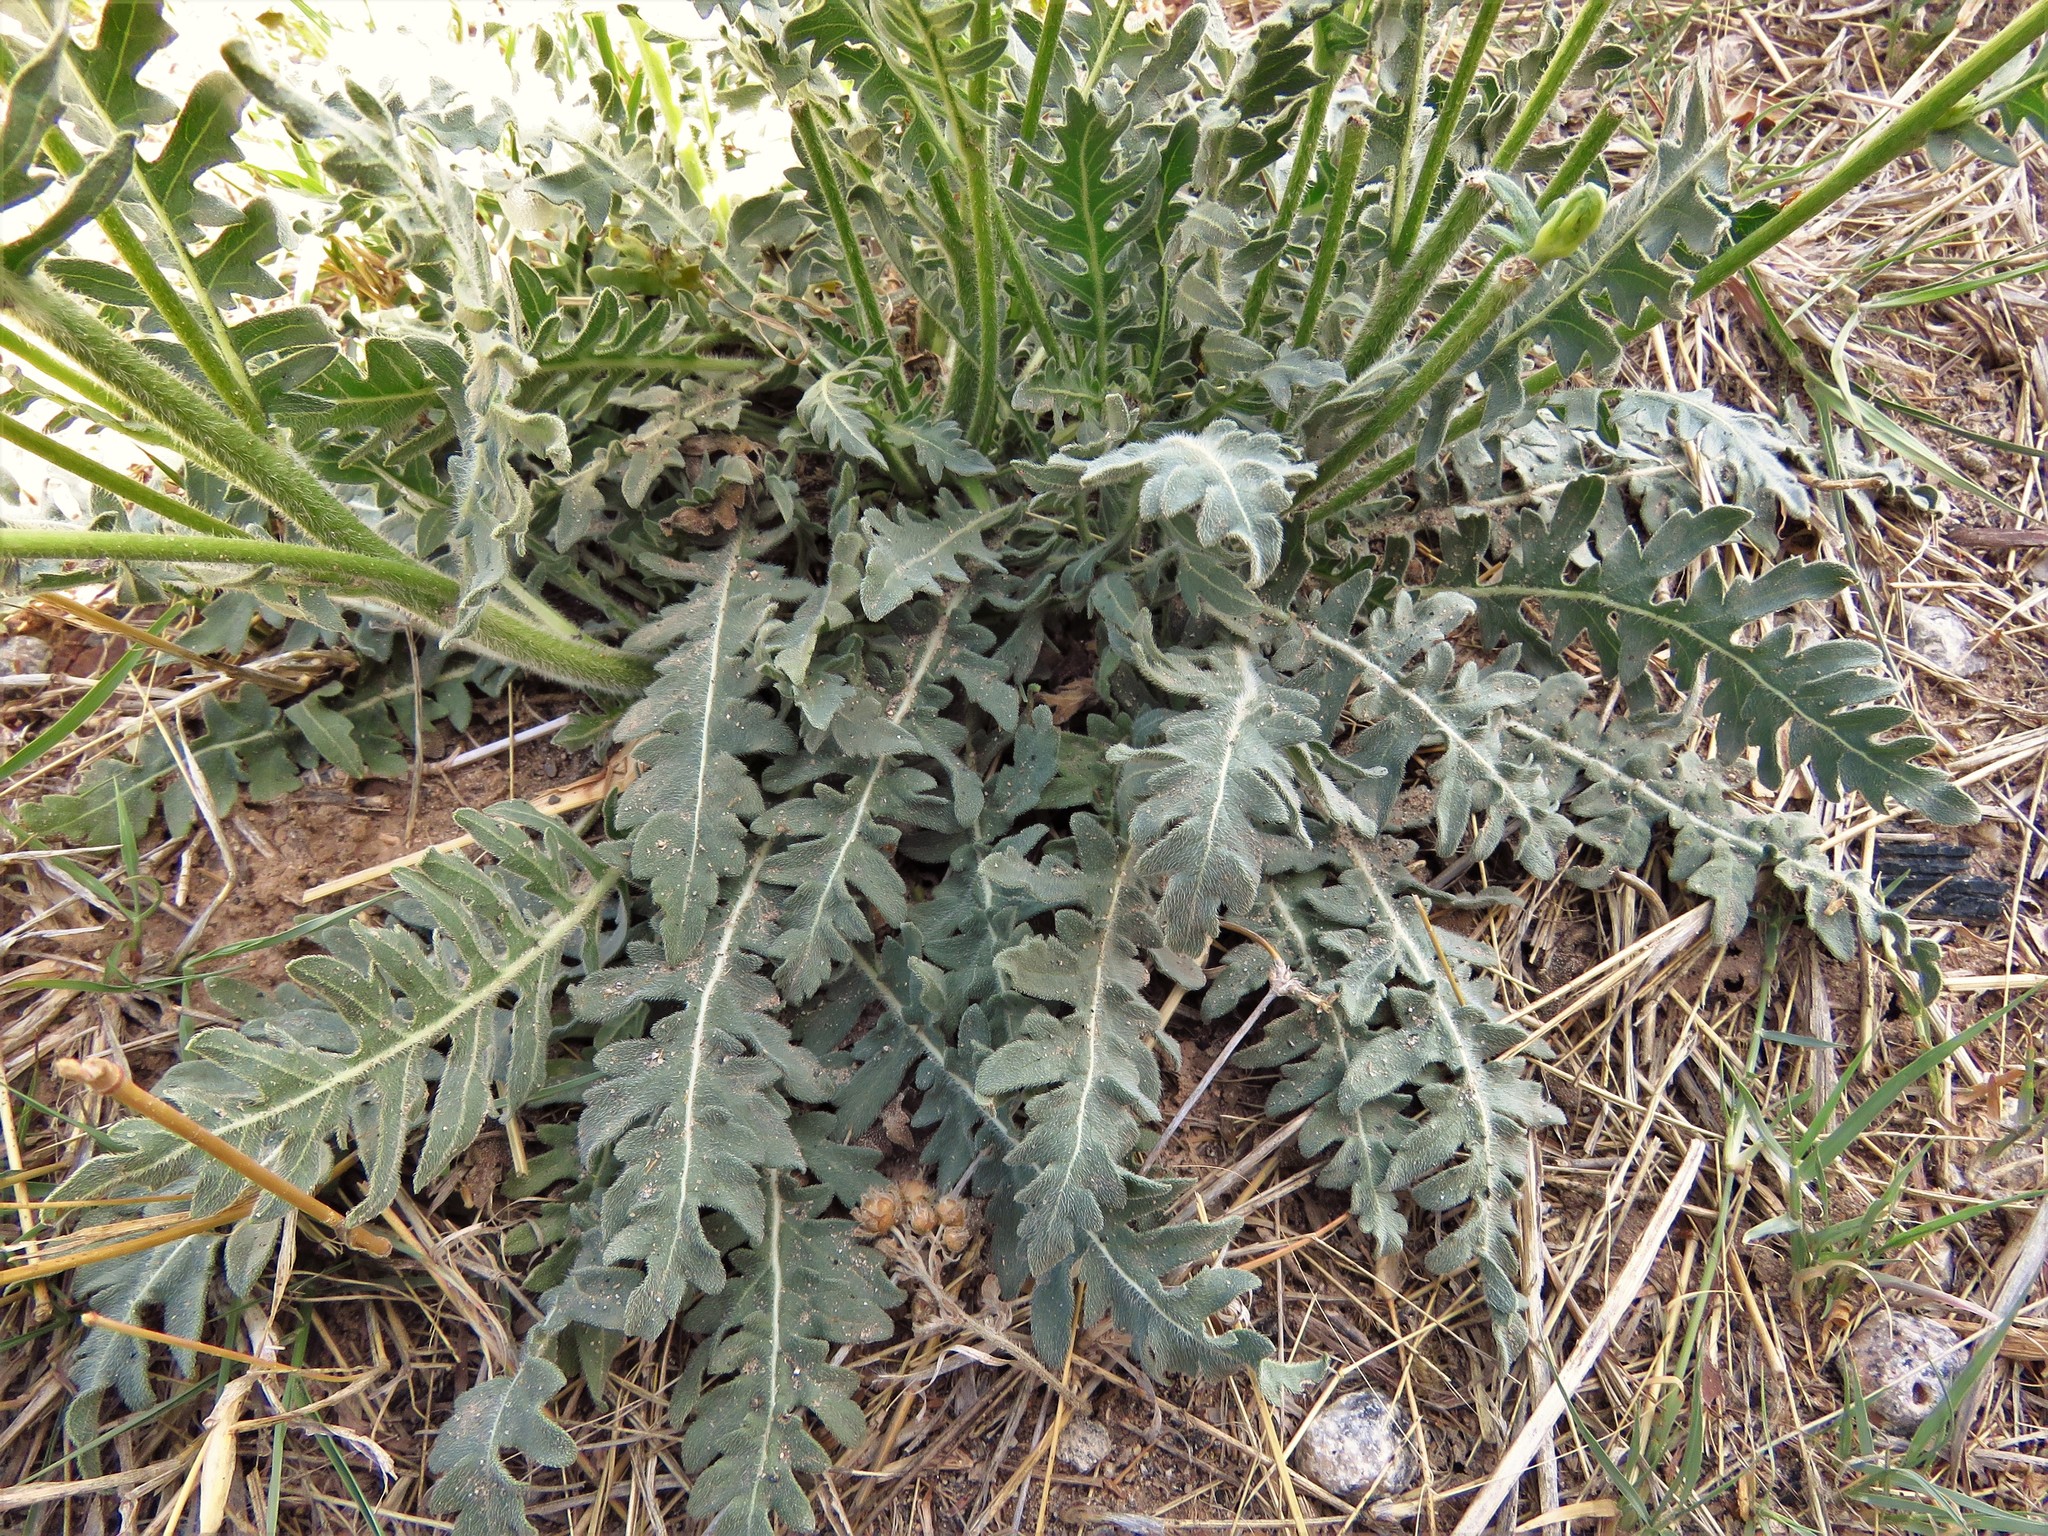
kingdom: Plantae
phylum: Tracheophyta
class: Magnoliopsida
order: Asterales
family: Asteraceae
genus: Engelmannia
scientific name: Engelmannia peristenia
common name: Engelmann's daisy
